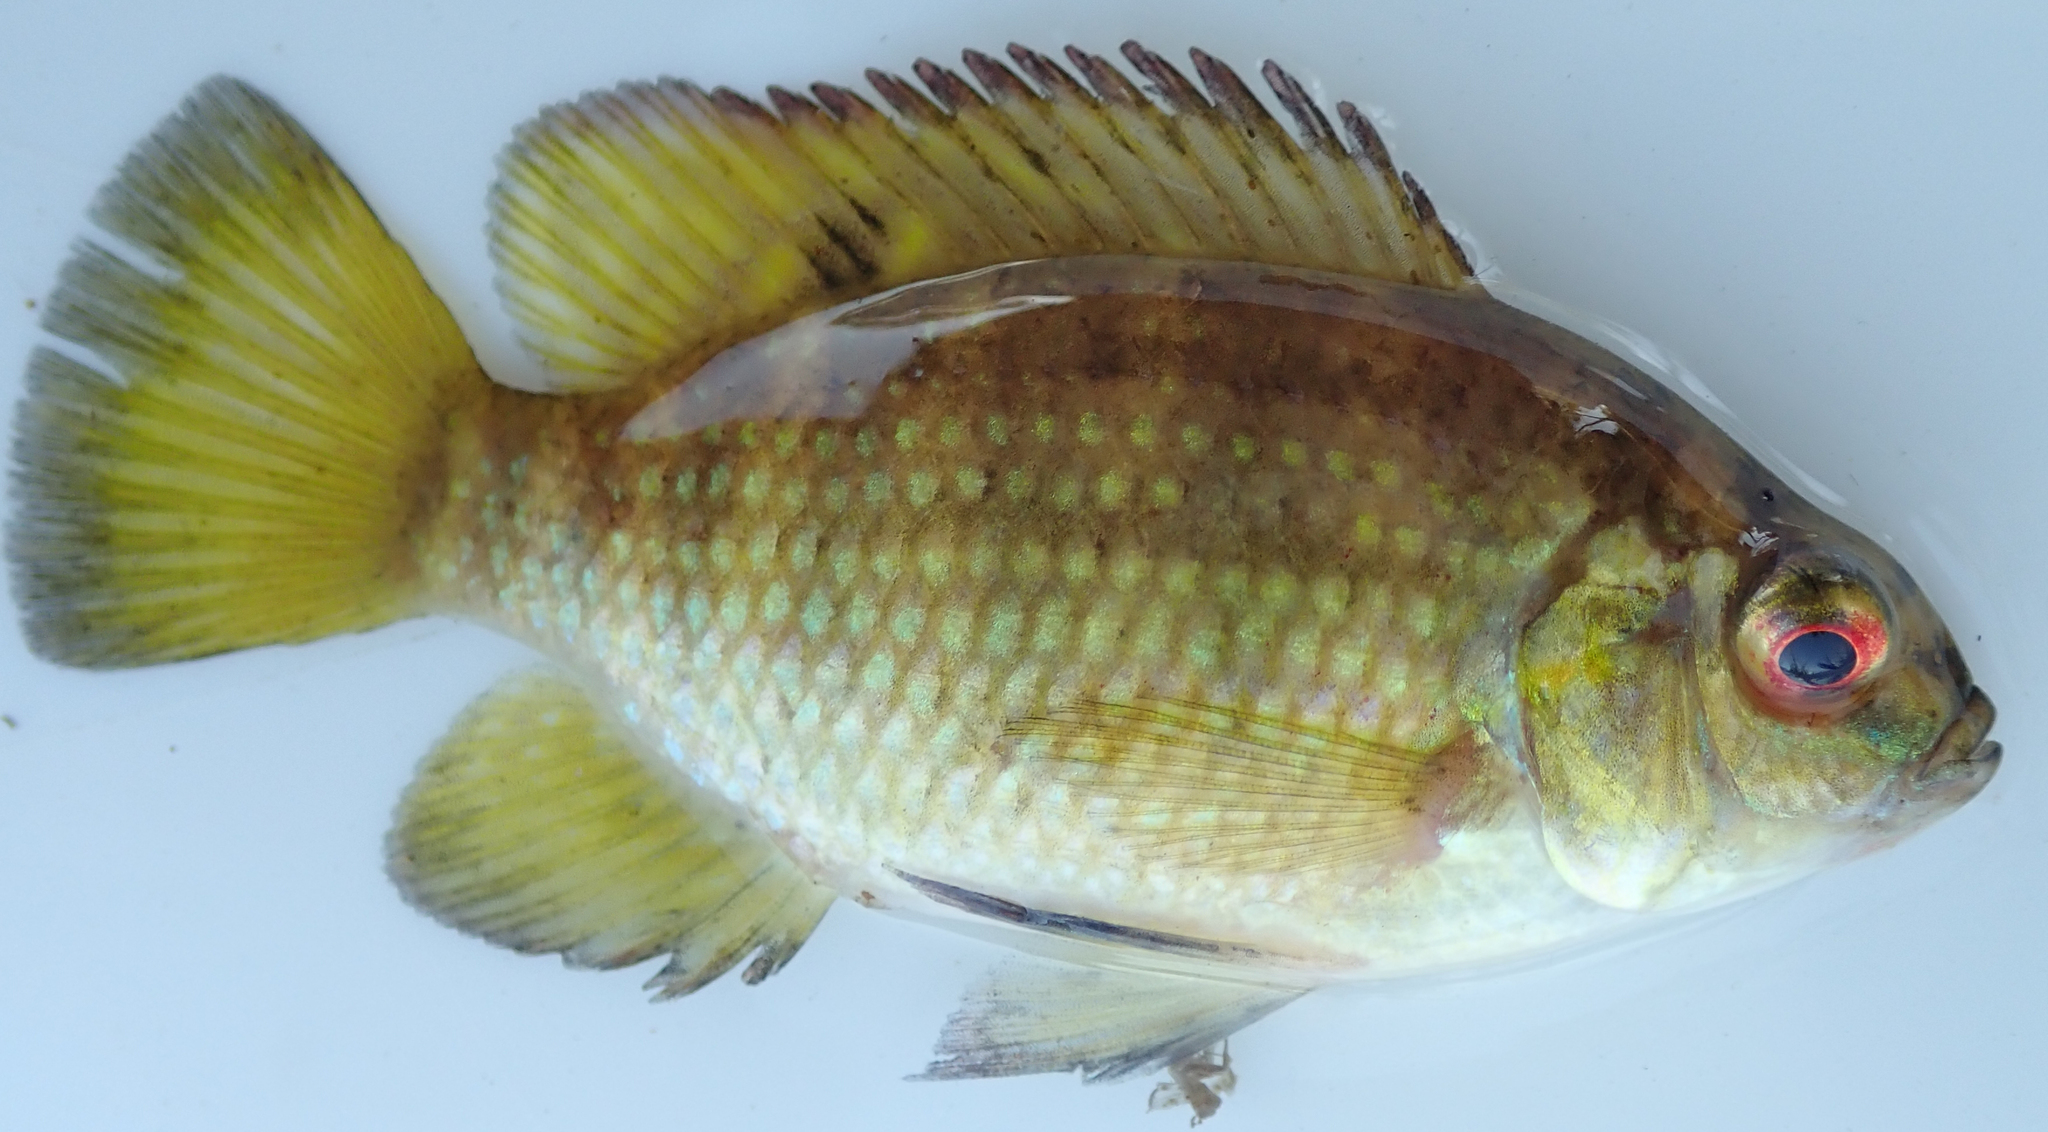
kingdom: Animalia
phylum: Chordata
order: Perciformes
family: Cichlidae
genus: Tilapia
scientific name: Tilapia sparrmanii
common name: Banded tilapia
